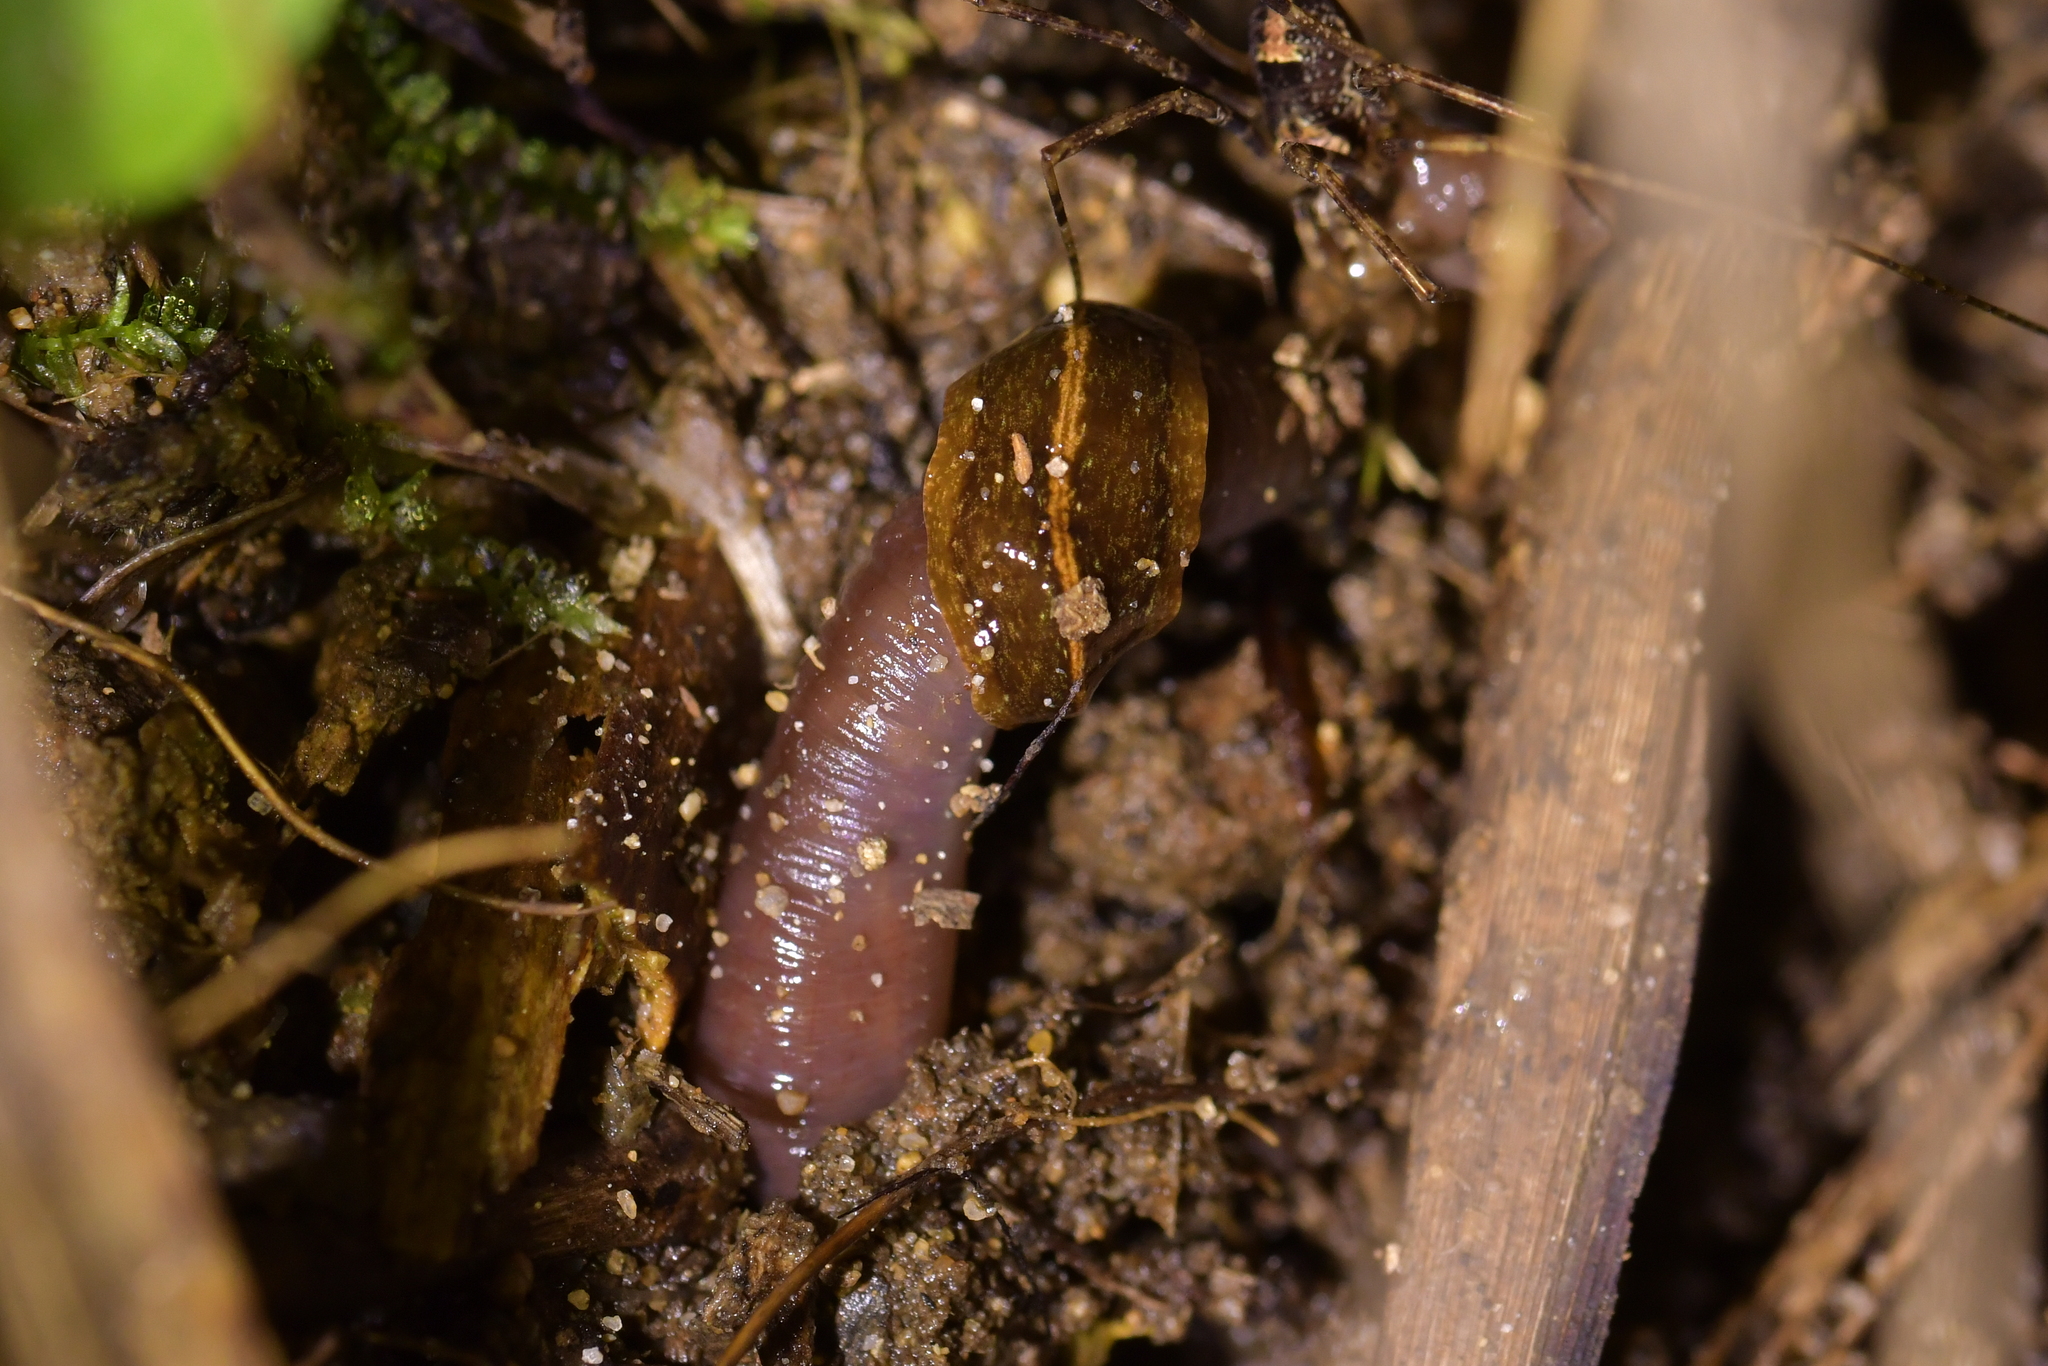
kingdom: Animalia
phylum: Platyhelminthes
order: Tricladida
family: Geoplanidae
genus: Newzealandia
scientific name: Newzealandia graffii
